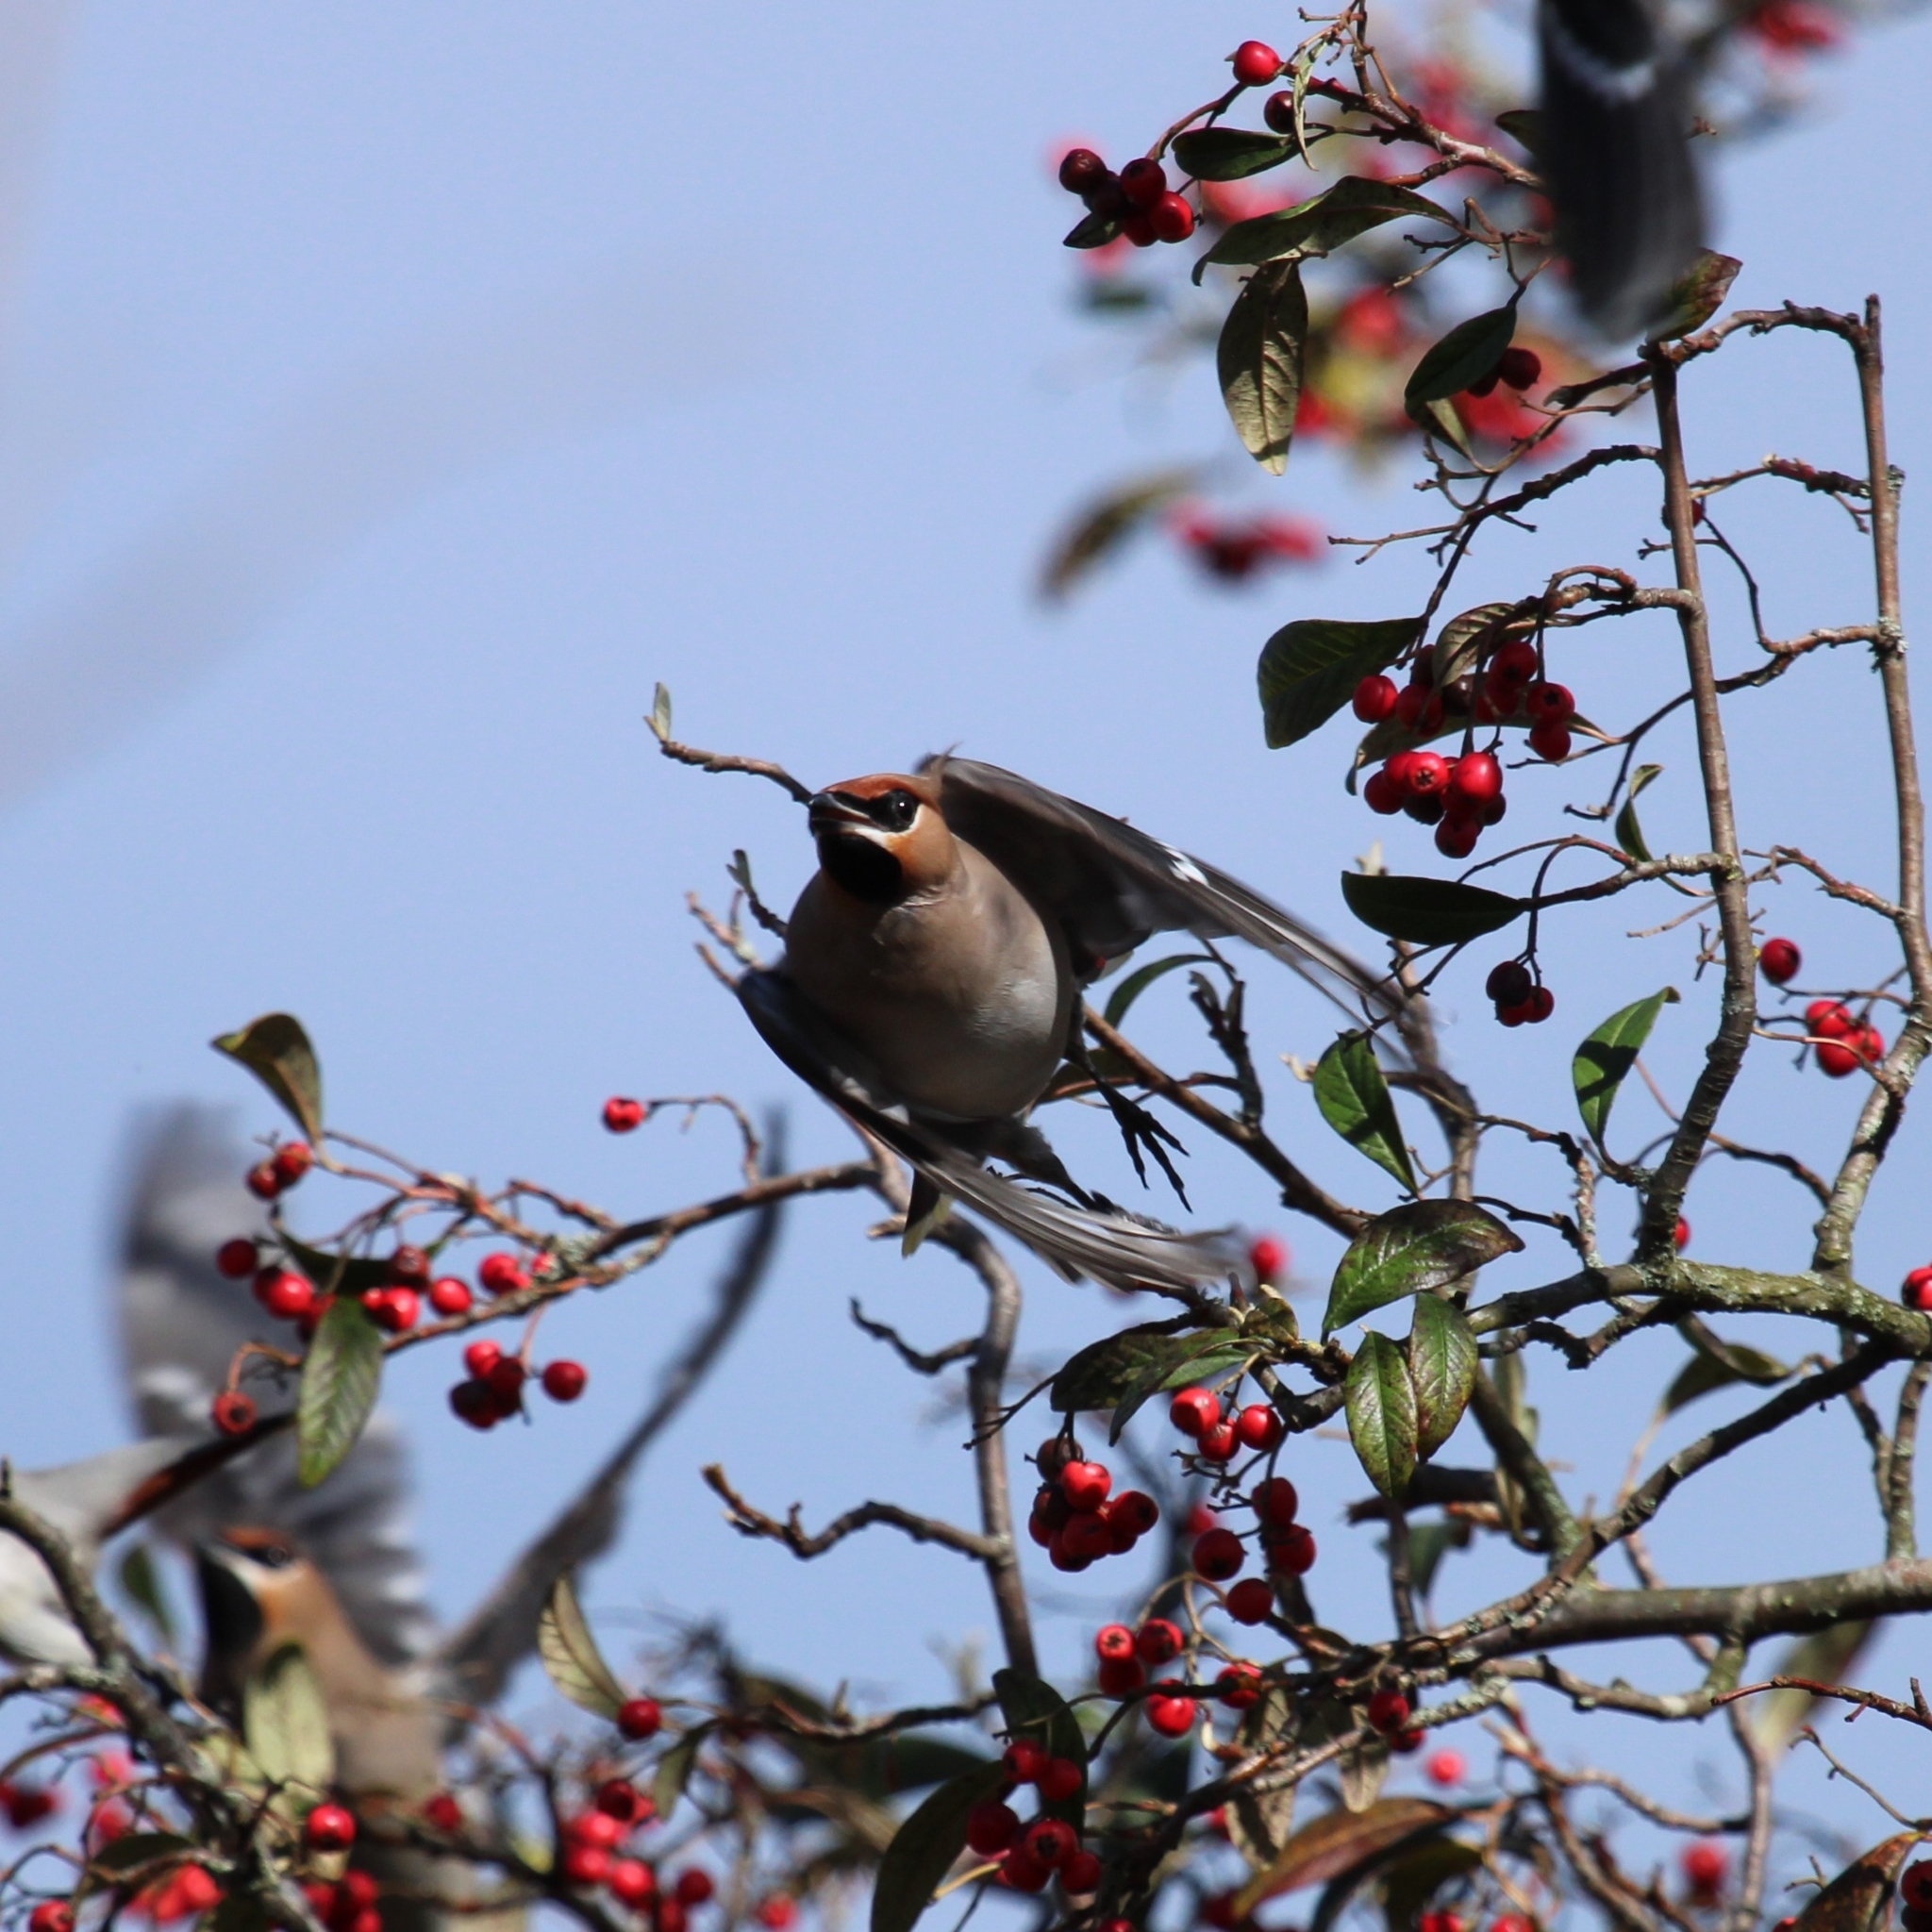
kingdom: Animalia
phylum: Chordata
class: Aves
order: Passeriformes
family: Bombycillidae
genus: Bombycilla
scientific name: Bombycilla garrulus
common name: Bohemian waxwing
